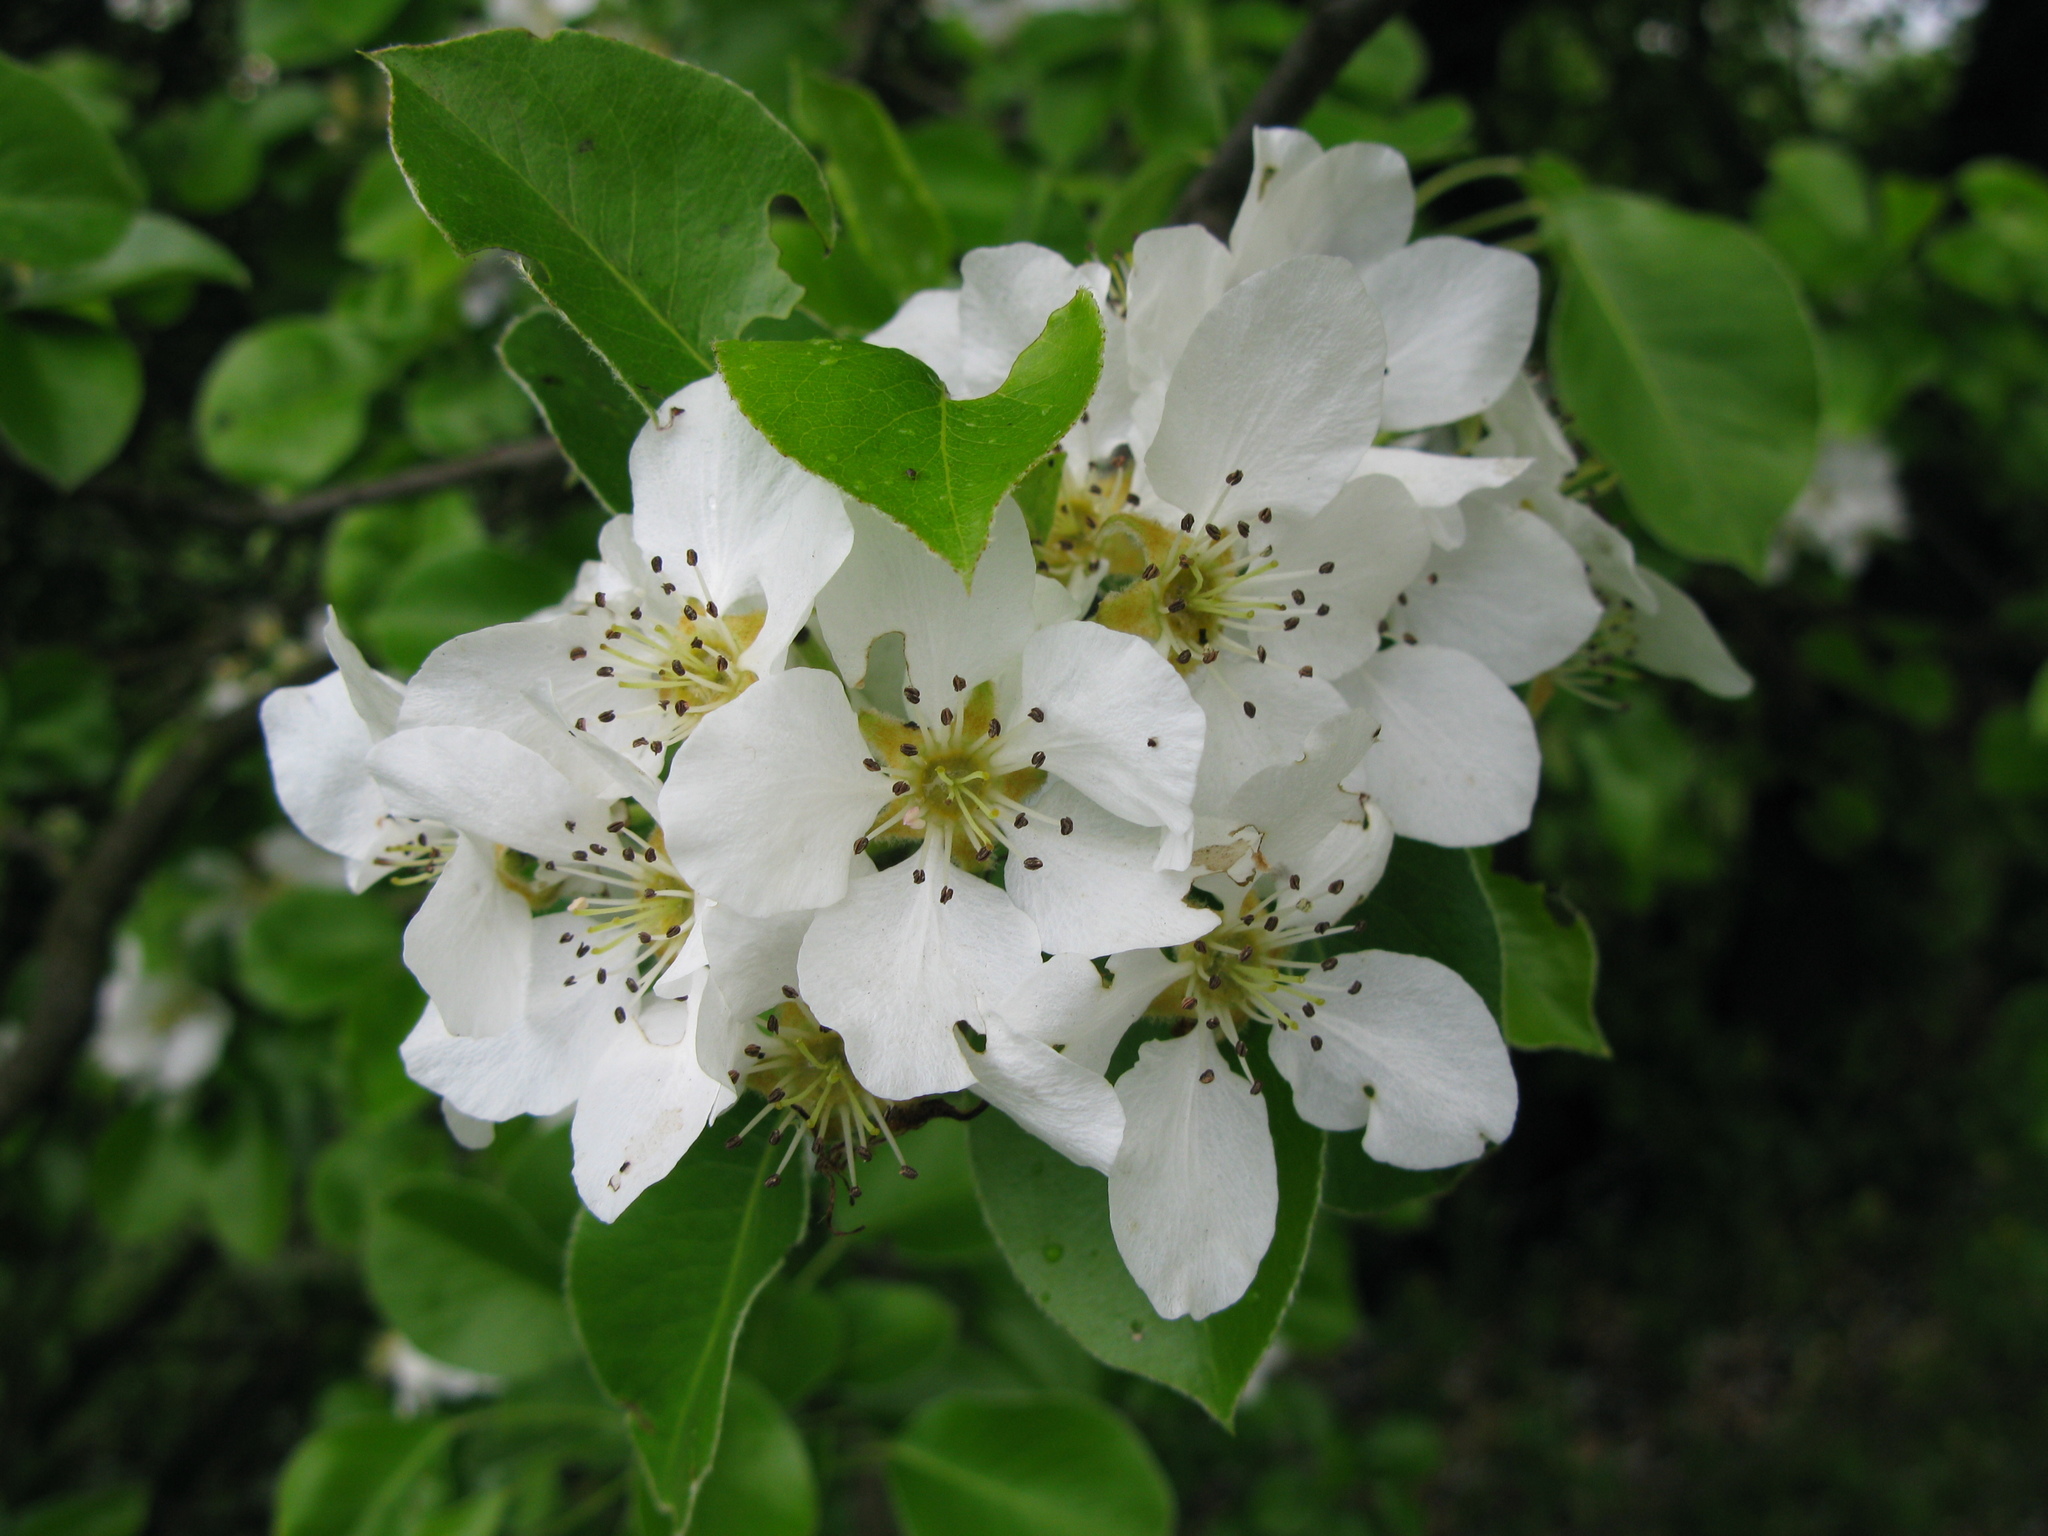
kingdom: Plantae
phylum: Tracheophyta
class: Magnoliopsida
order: Rosales
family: Rosaceae
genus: Pyrus
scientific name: Pyrus communis
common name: Pear
